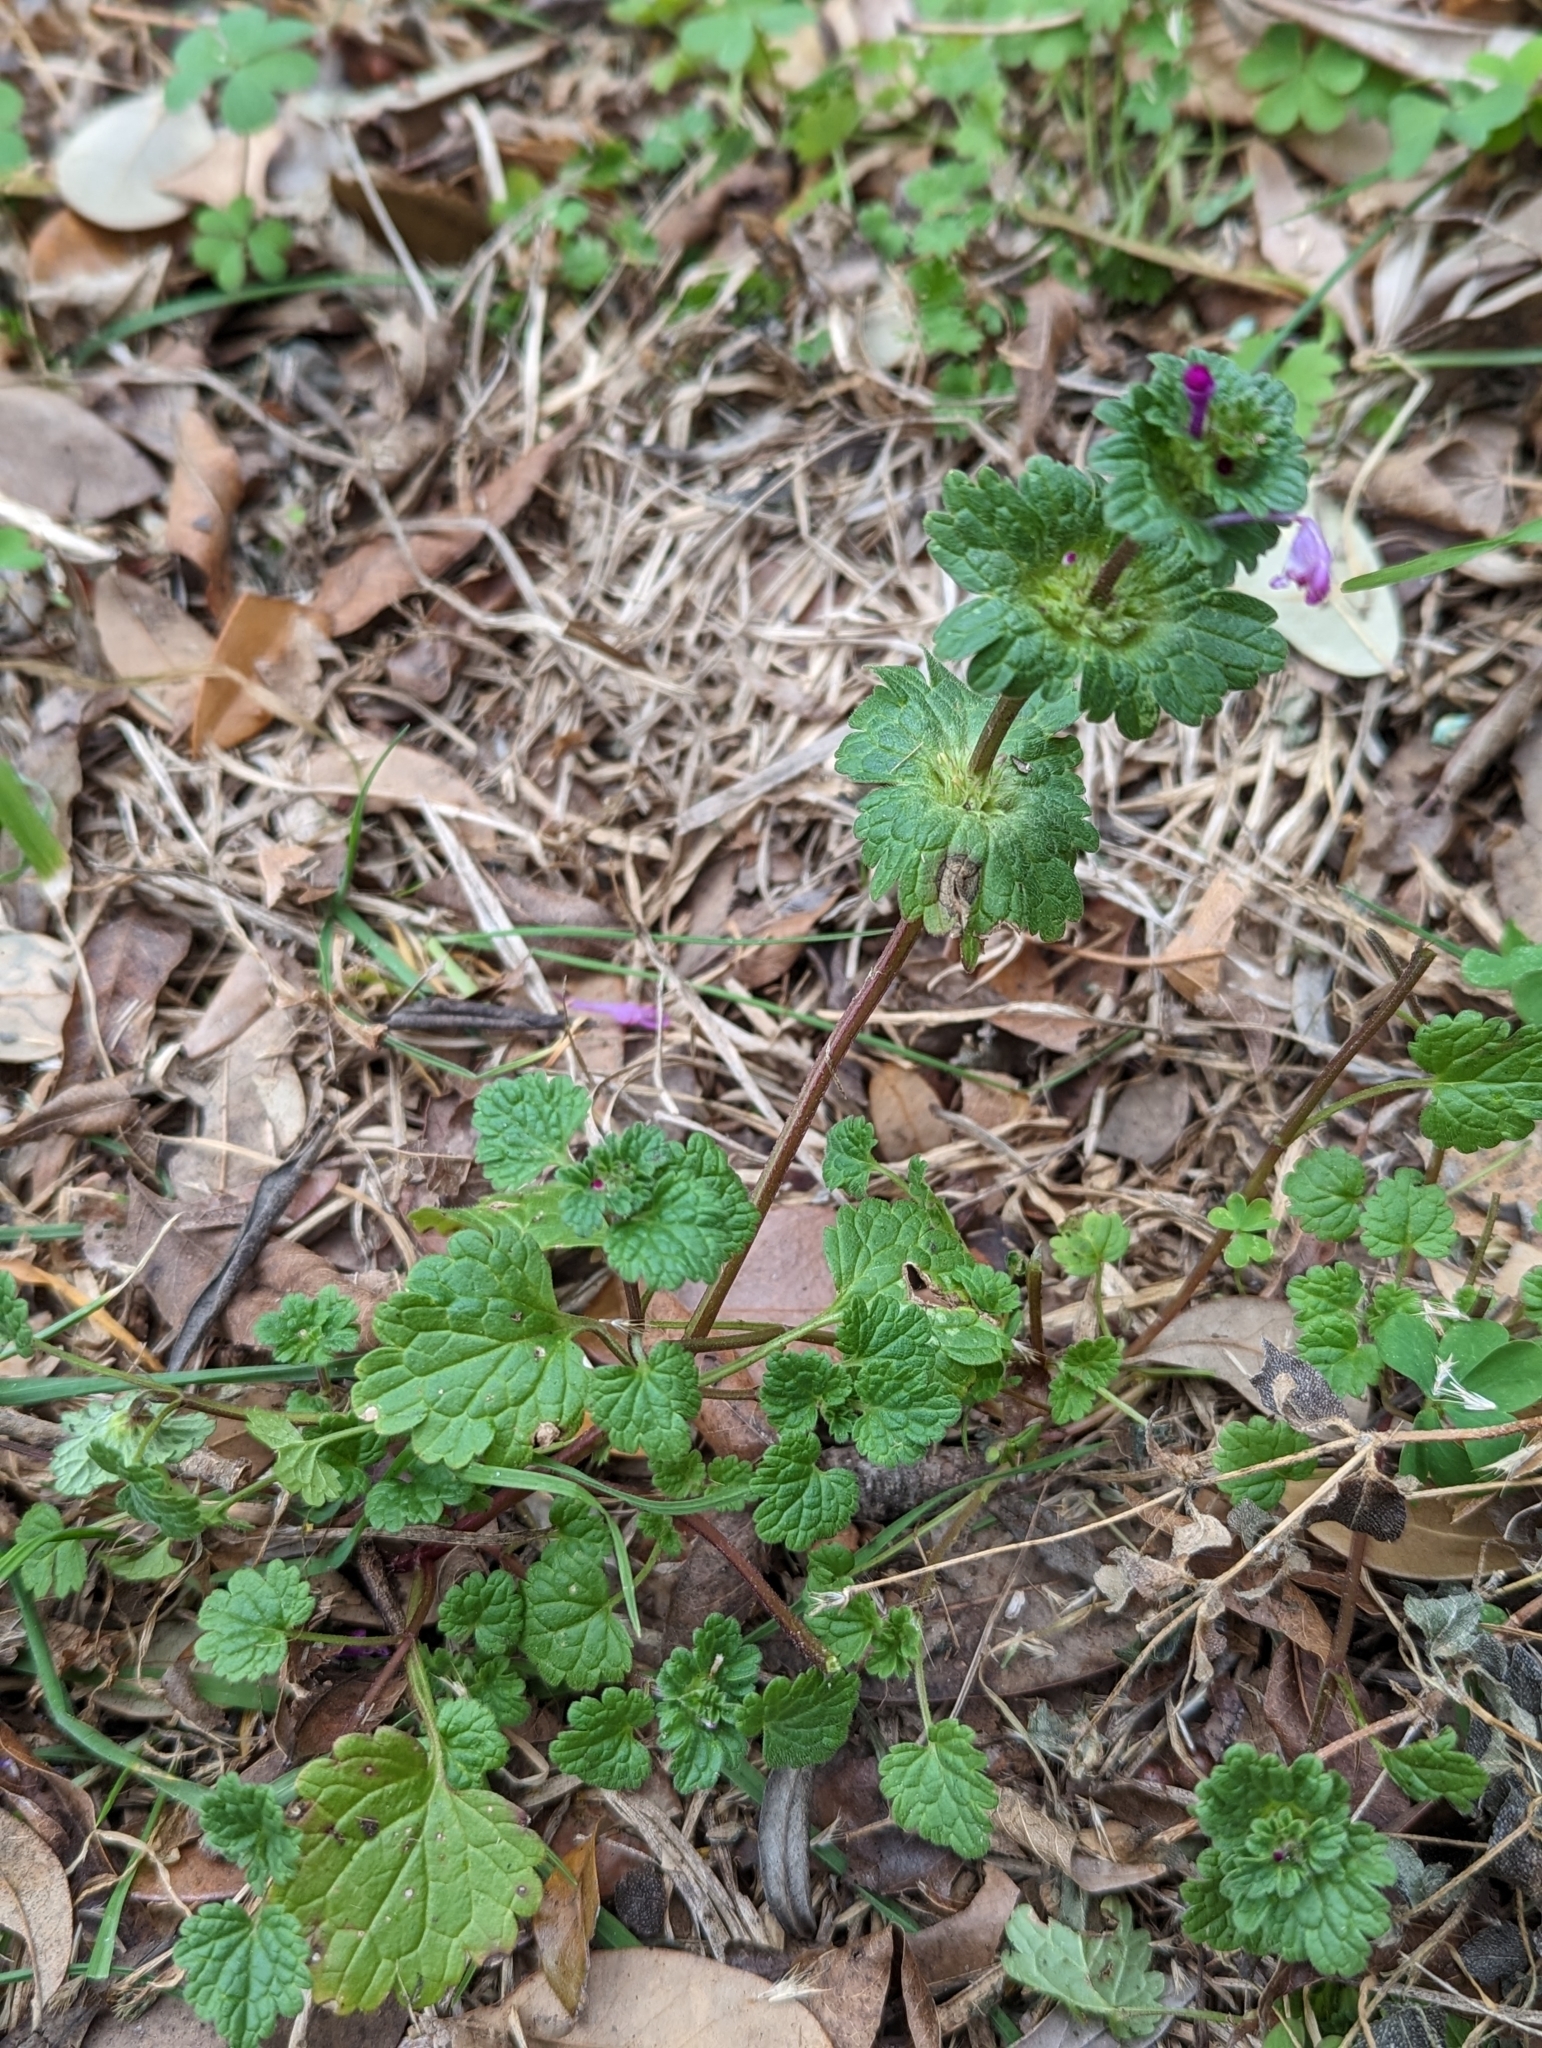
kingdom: Plantae
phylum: Tracheophyta
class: Magnoliopsida
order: Lamiales
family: Lamiaceae
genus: Lamium
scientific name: Lamium amplexicaule
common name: Henbit dead-nettle
